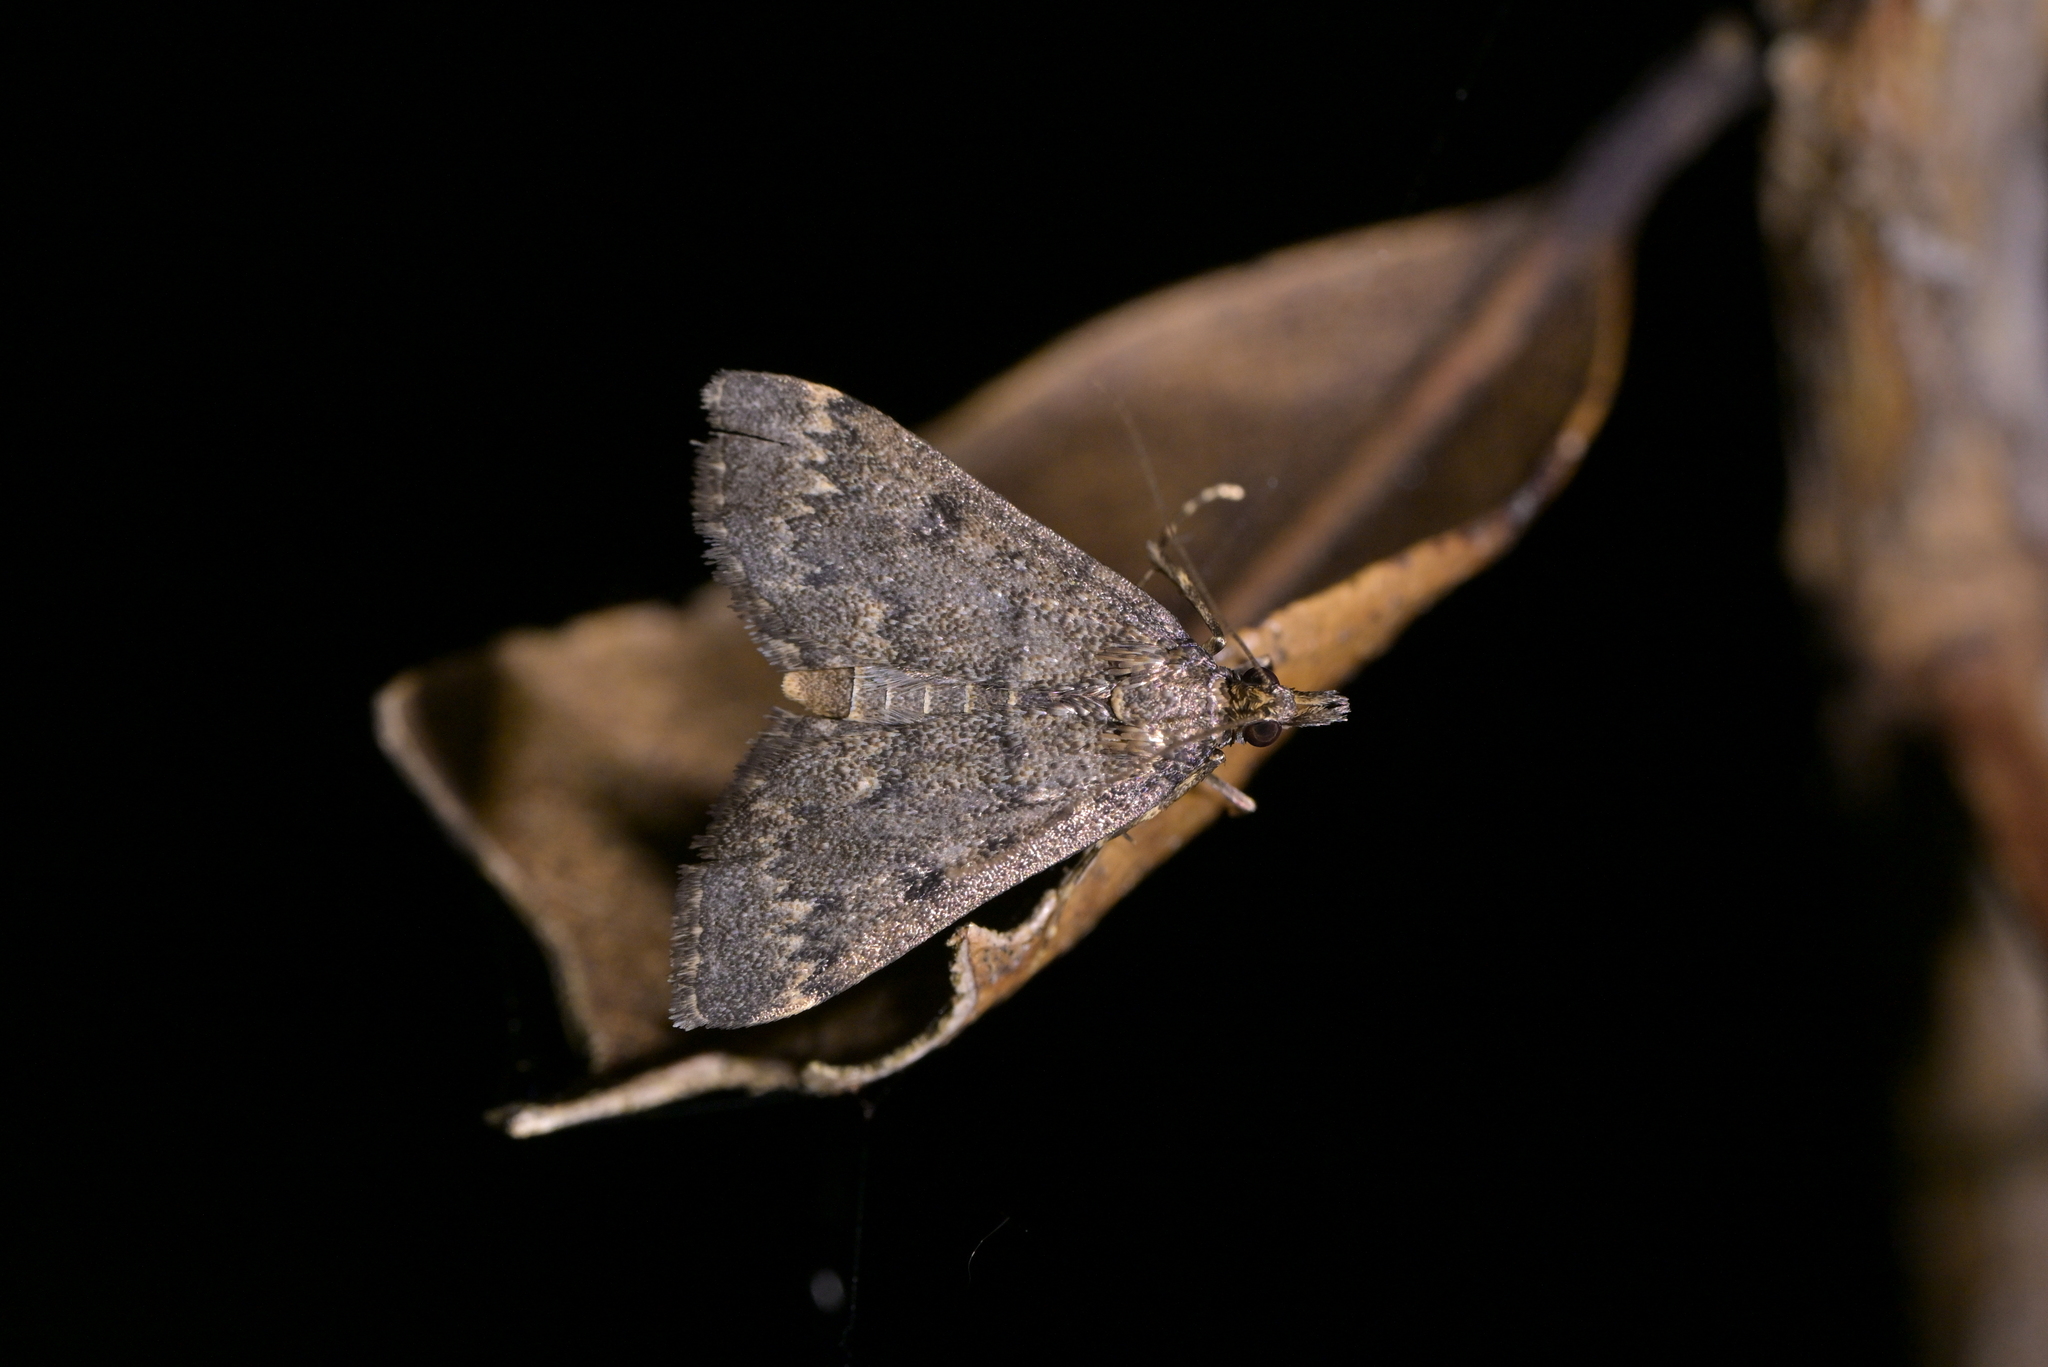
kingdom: Animalia
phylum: Arthropoda
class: Insecta
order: Lepidoptera
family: Crambidae
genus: Loxostege
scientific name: Loxostege Proternia philocapna
